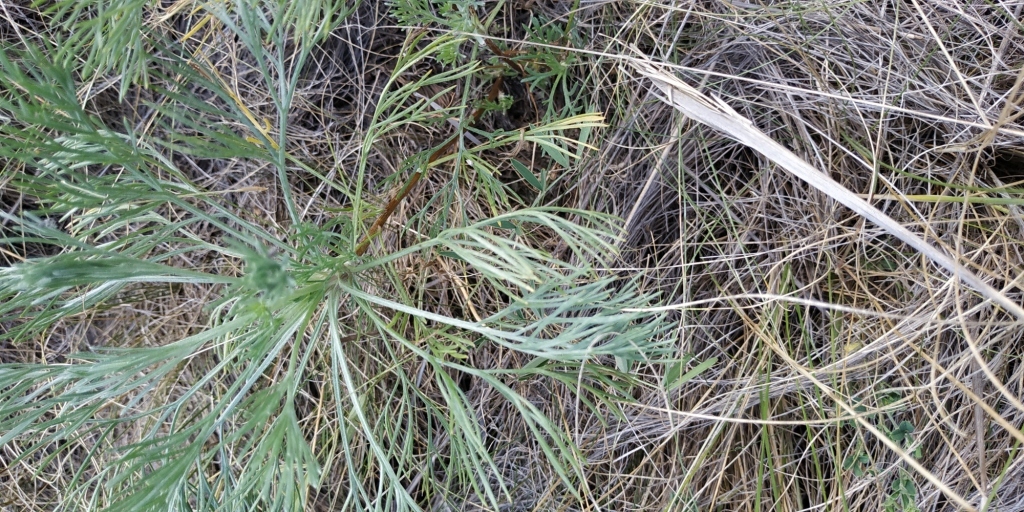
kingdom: Plantae
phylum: Tracheophyta
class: Magnoliopsida
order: Asterales
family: Asteraceae
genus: Artemisia
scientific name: Artemisia marschalliana
